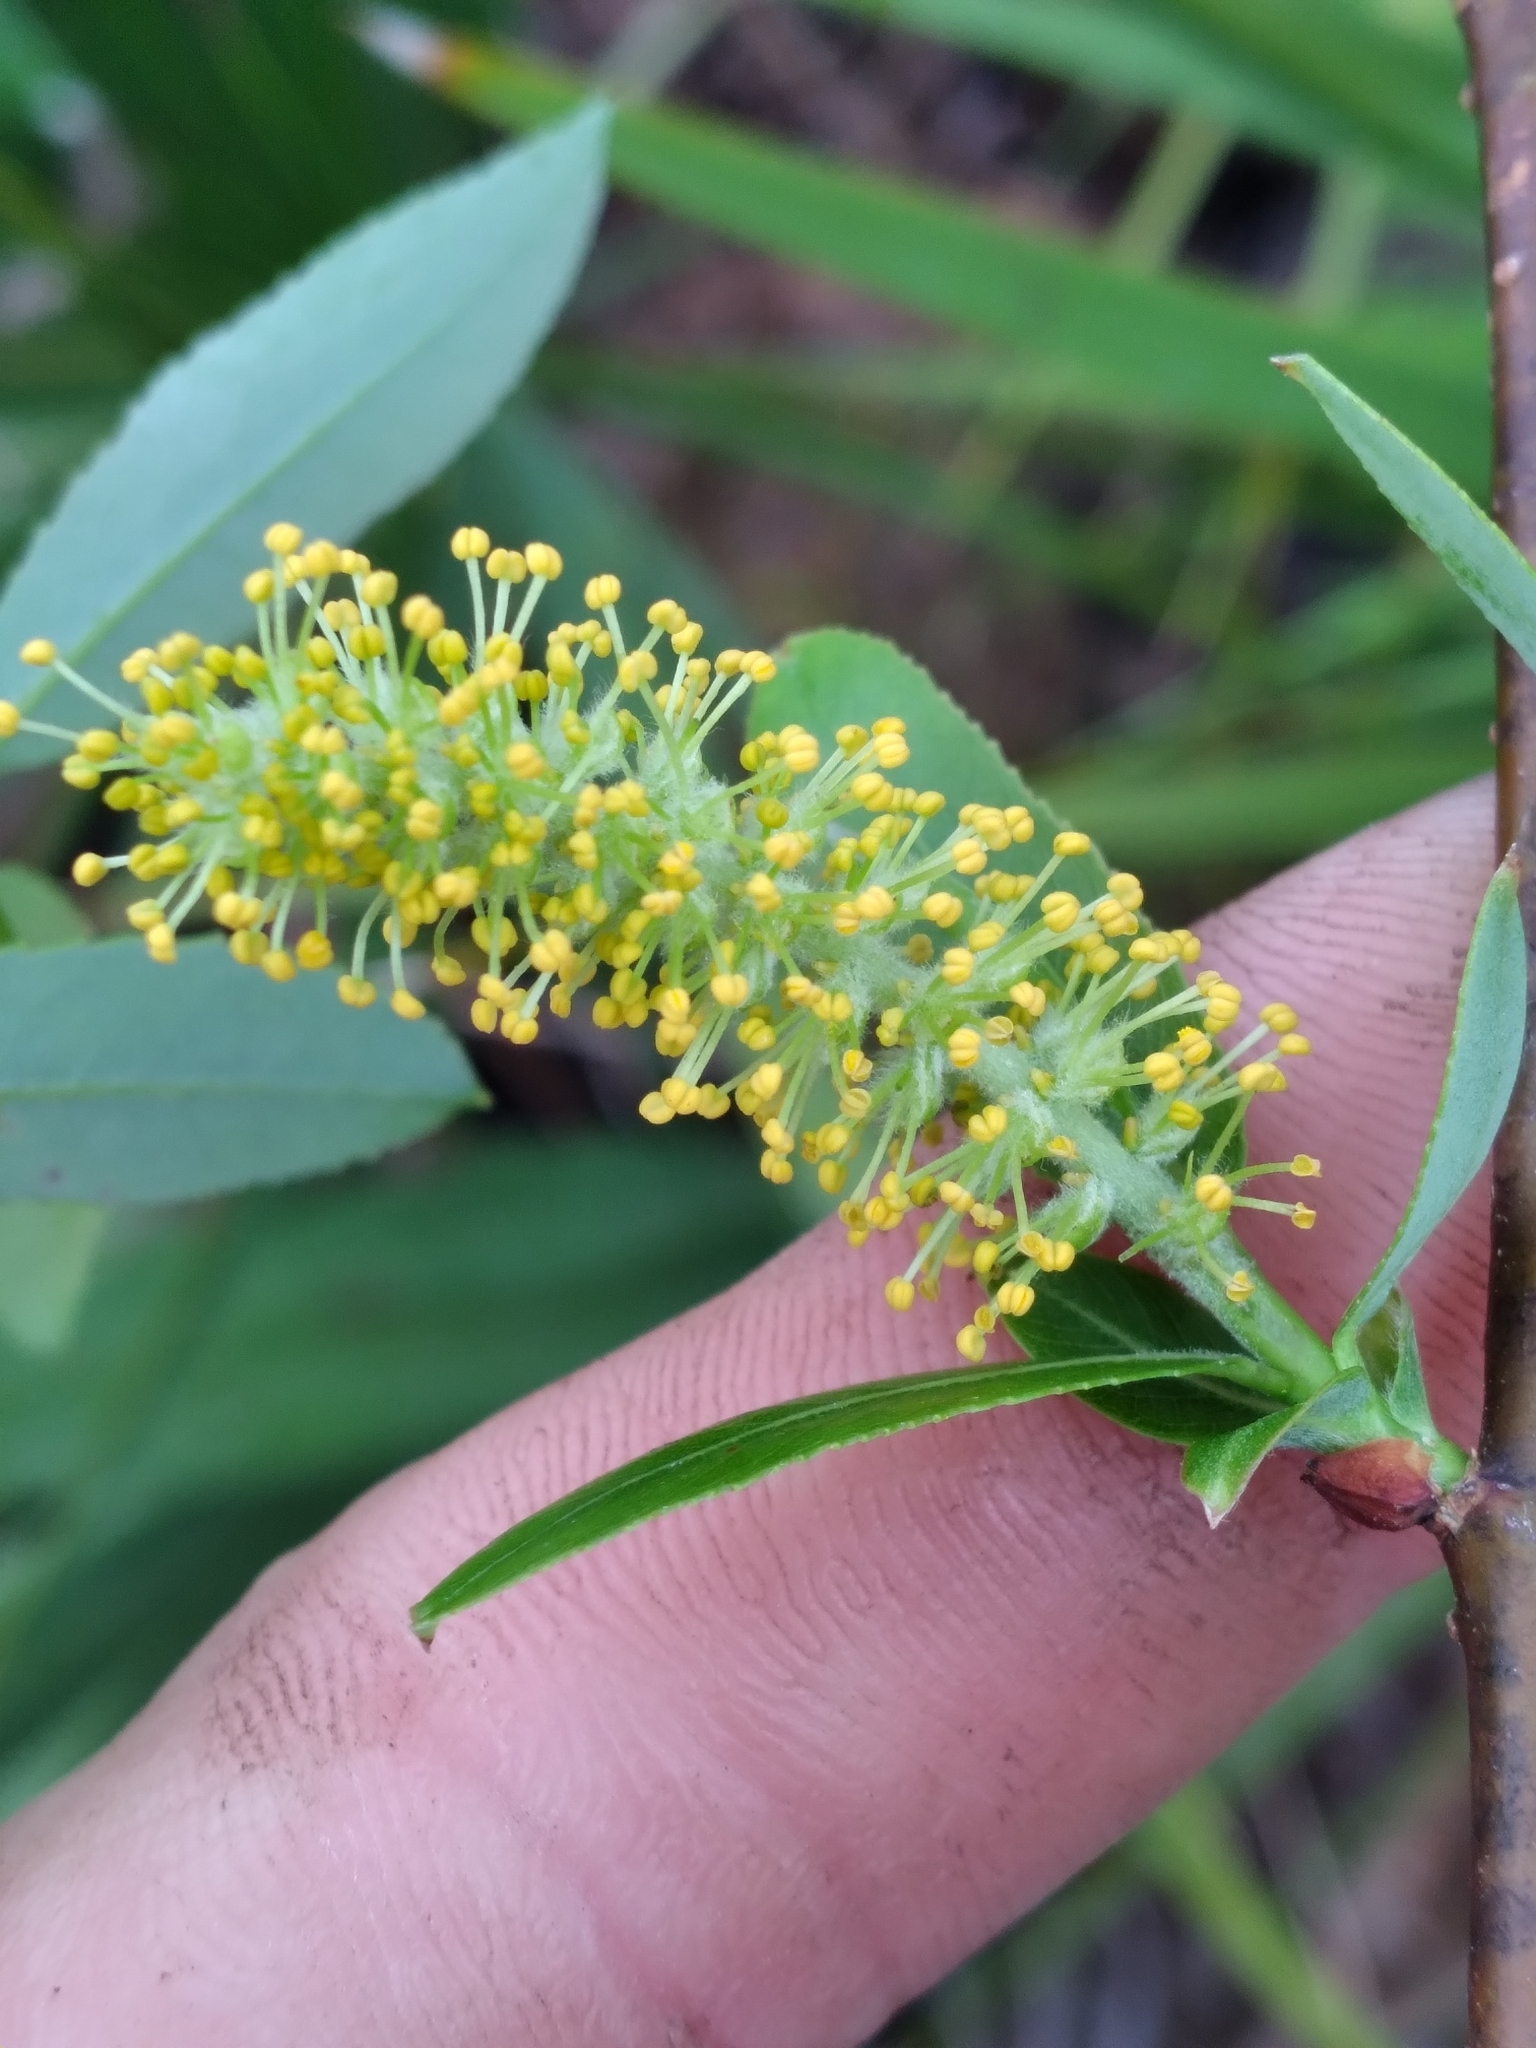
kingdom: Plantae
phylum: Tracheophyta
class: Magnoliopsida
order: Malpighiales
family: Salicaceae
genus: Salix
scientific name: Salix caroliniana
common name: Carolina willow
